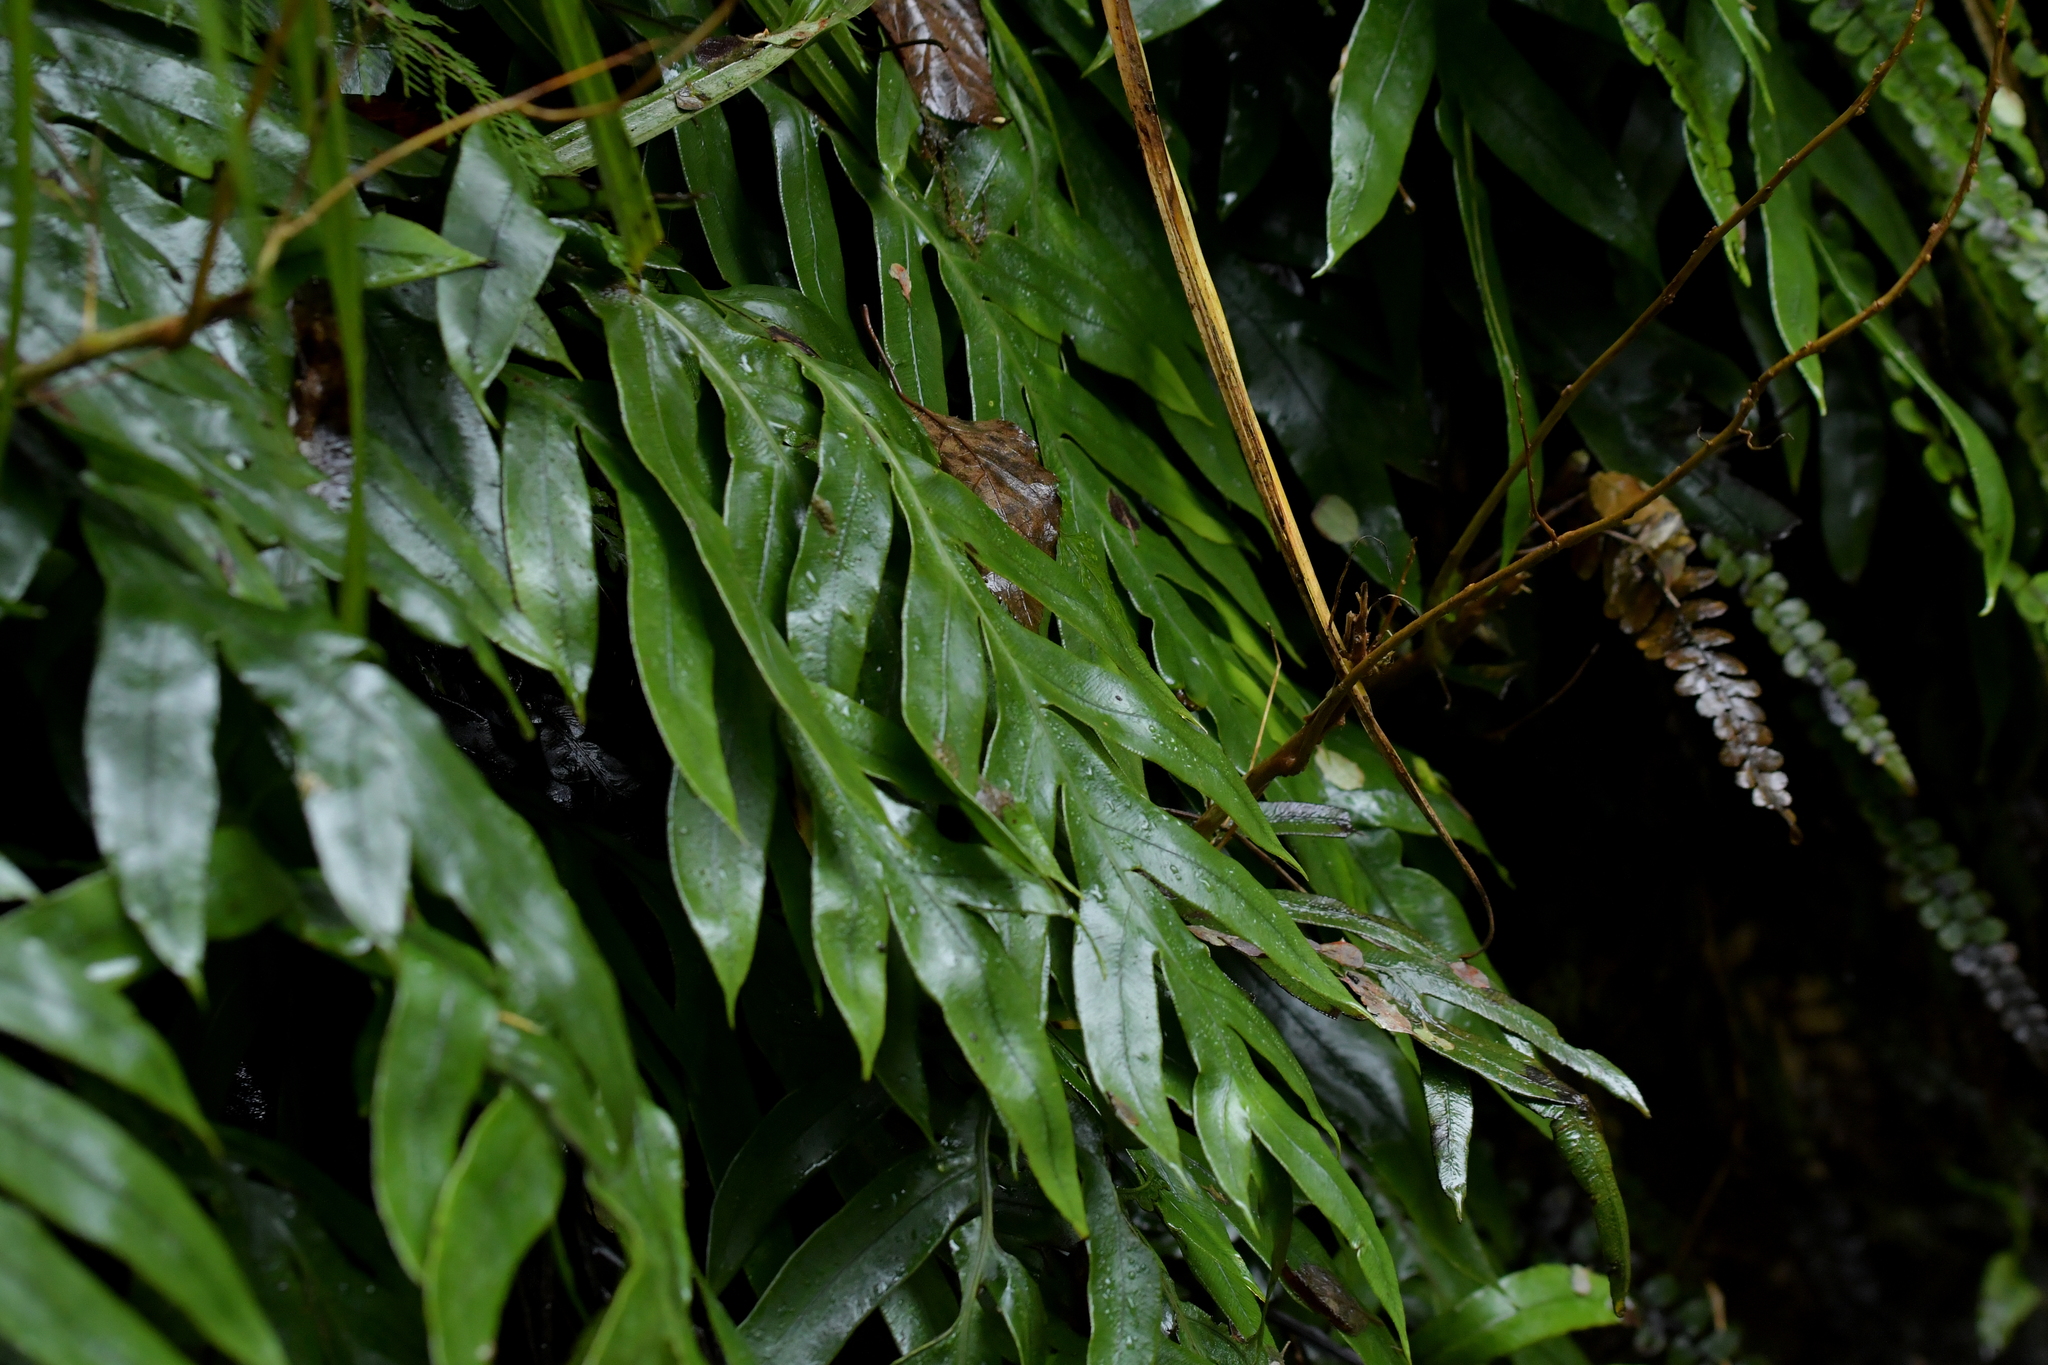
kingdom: Plantae
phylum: Tracheophyta
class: Polypodiopsida
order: Polypodiales
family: Blechnaceae
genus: Austroblechnum
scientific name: Austroblechnum colensoi
